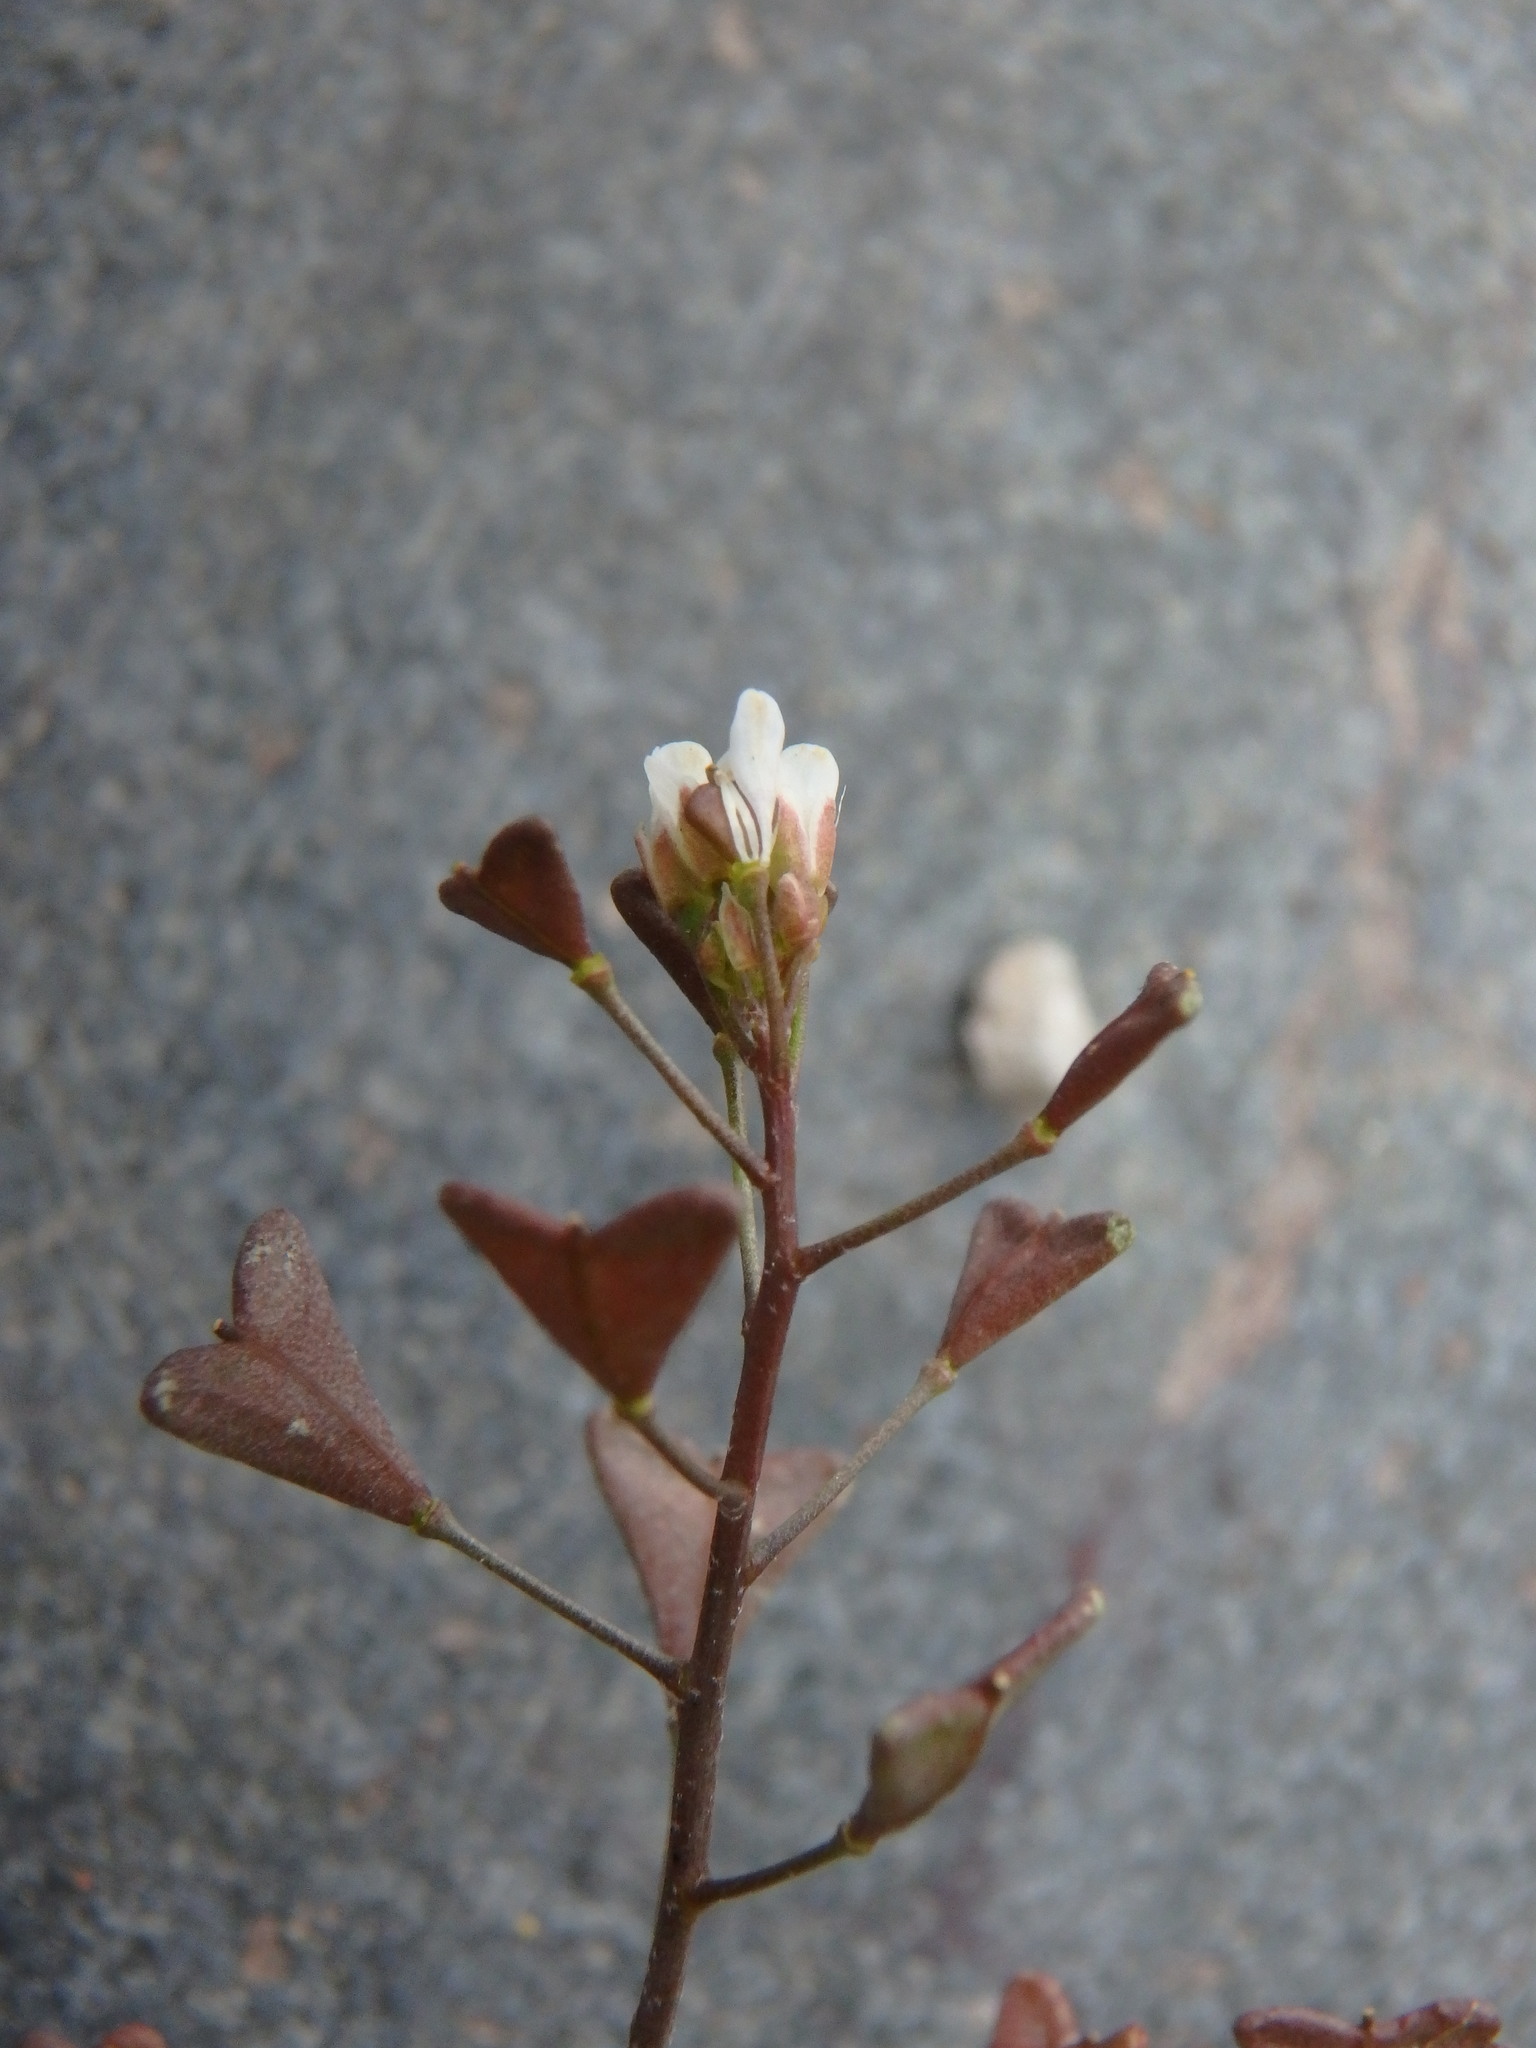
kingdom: Plantae
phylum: Tracheophyta
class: Magnoliopsida
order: Brassicales
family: Brassicaceae
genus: Capsella
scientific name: Capsella bursa-pastoris
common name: Shepherd's purse
